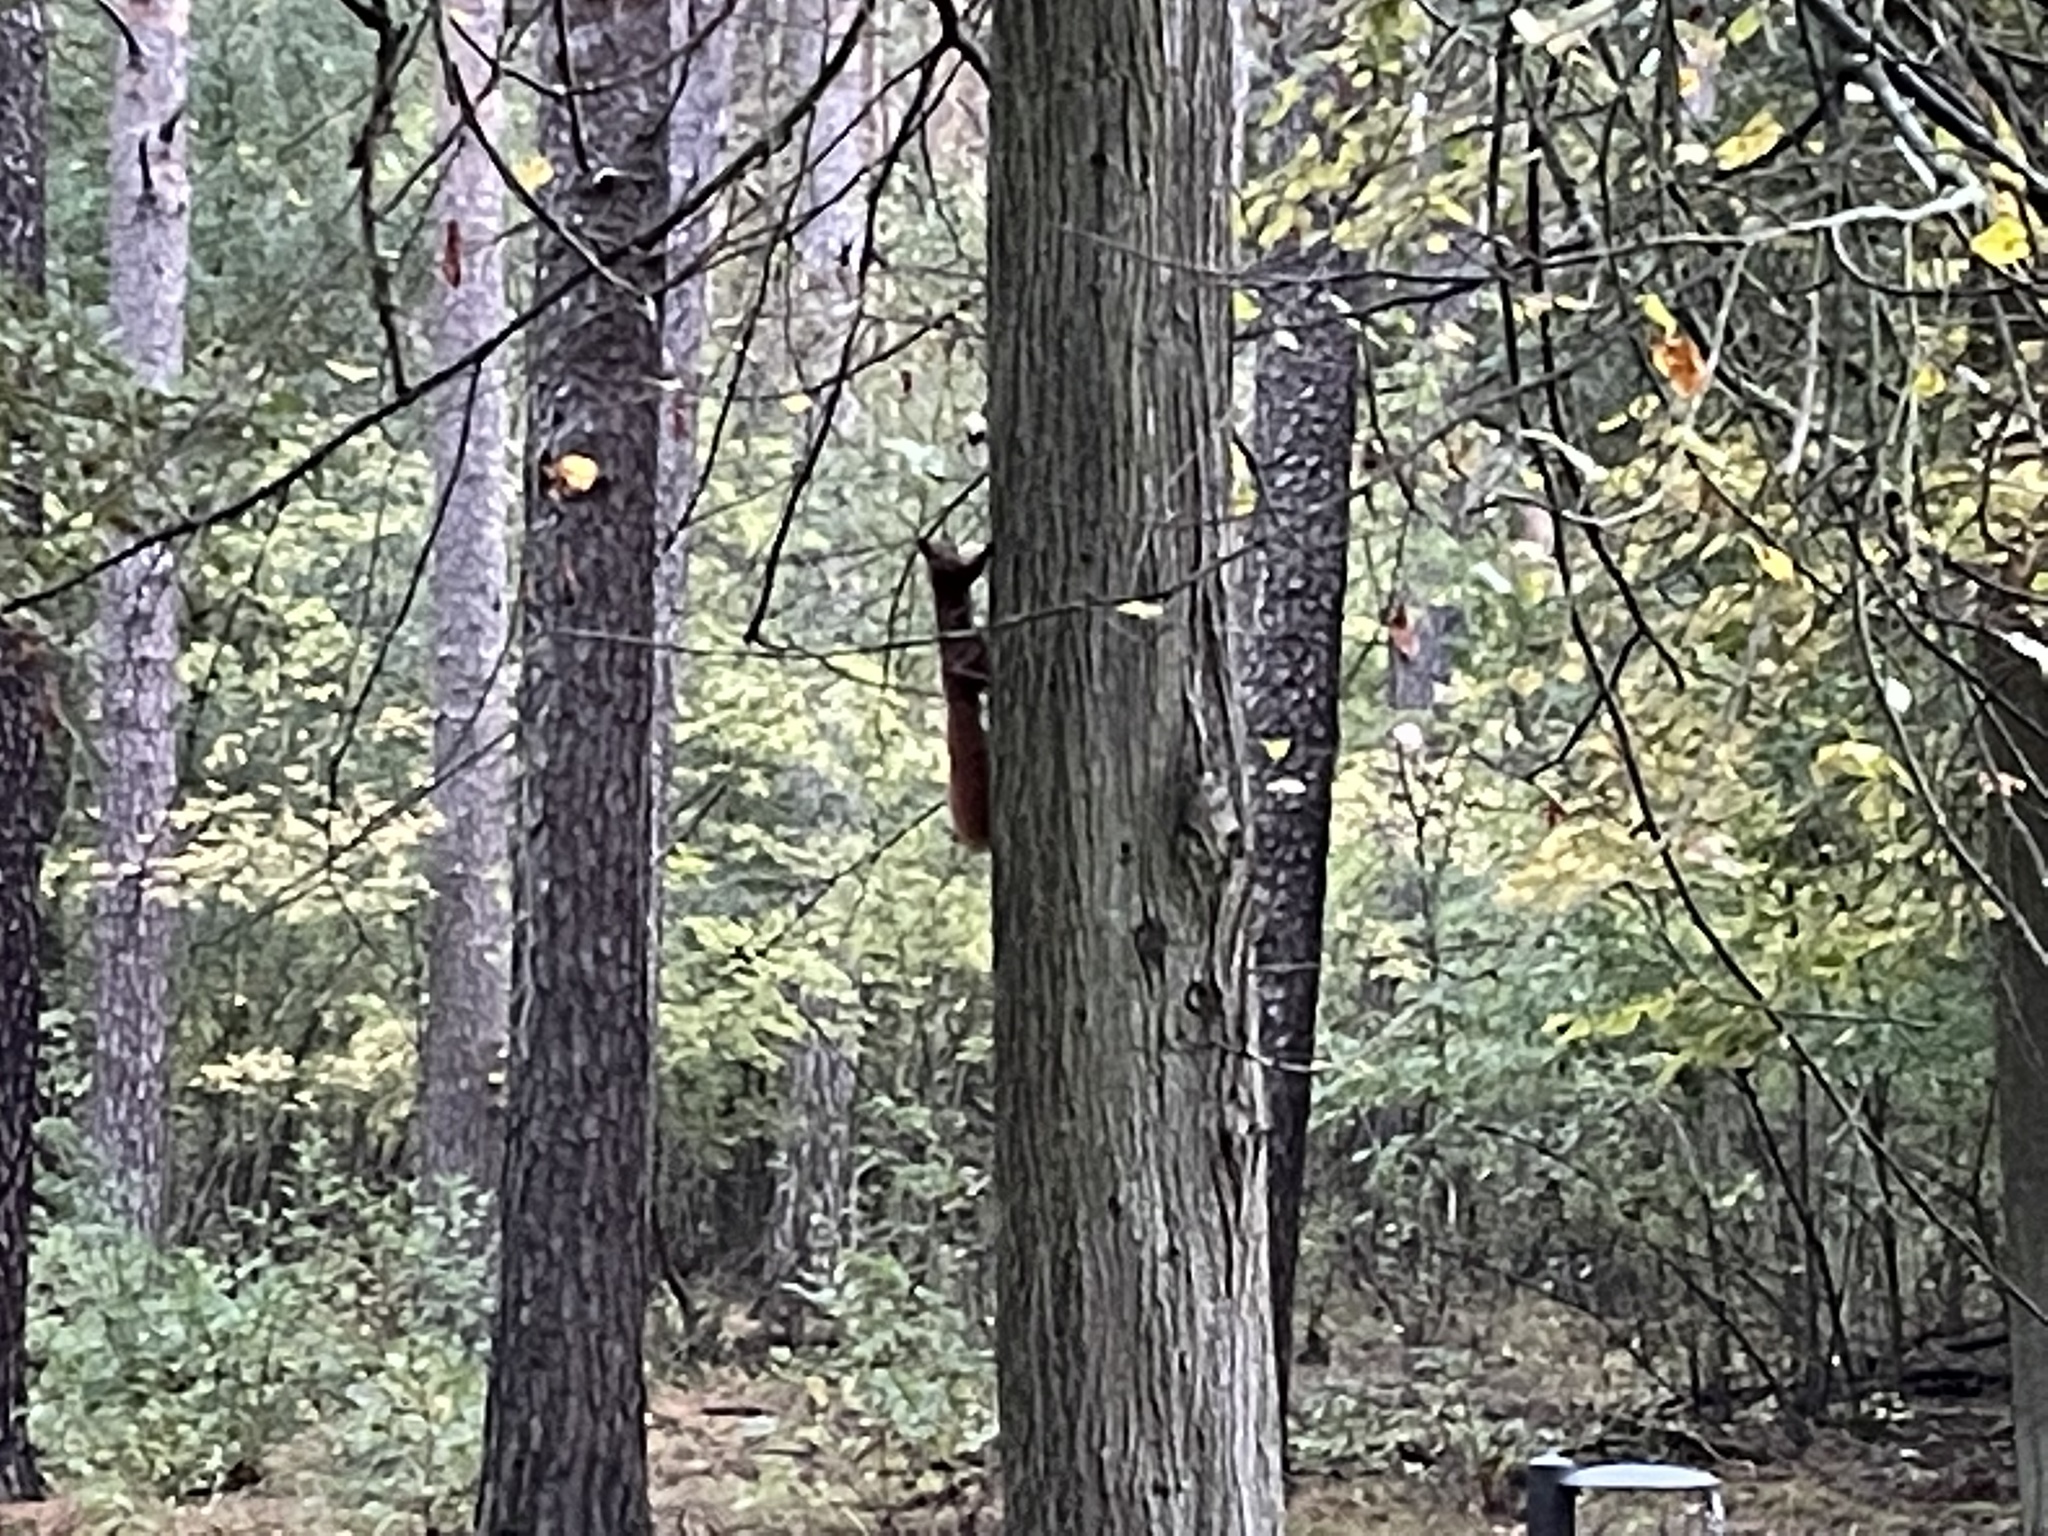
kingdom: Animalia
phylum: Chordata
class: Mammalia
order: Rodentia
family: Sciuridae
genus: Sciurus
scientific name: Sciurus vulgaris
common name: Eurasian red squirrel
